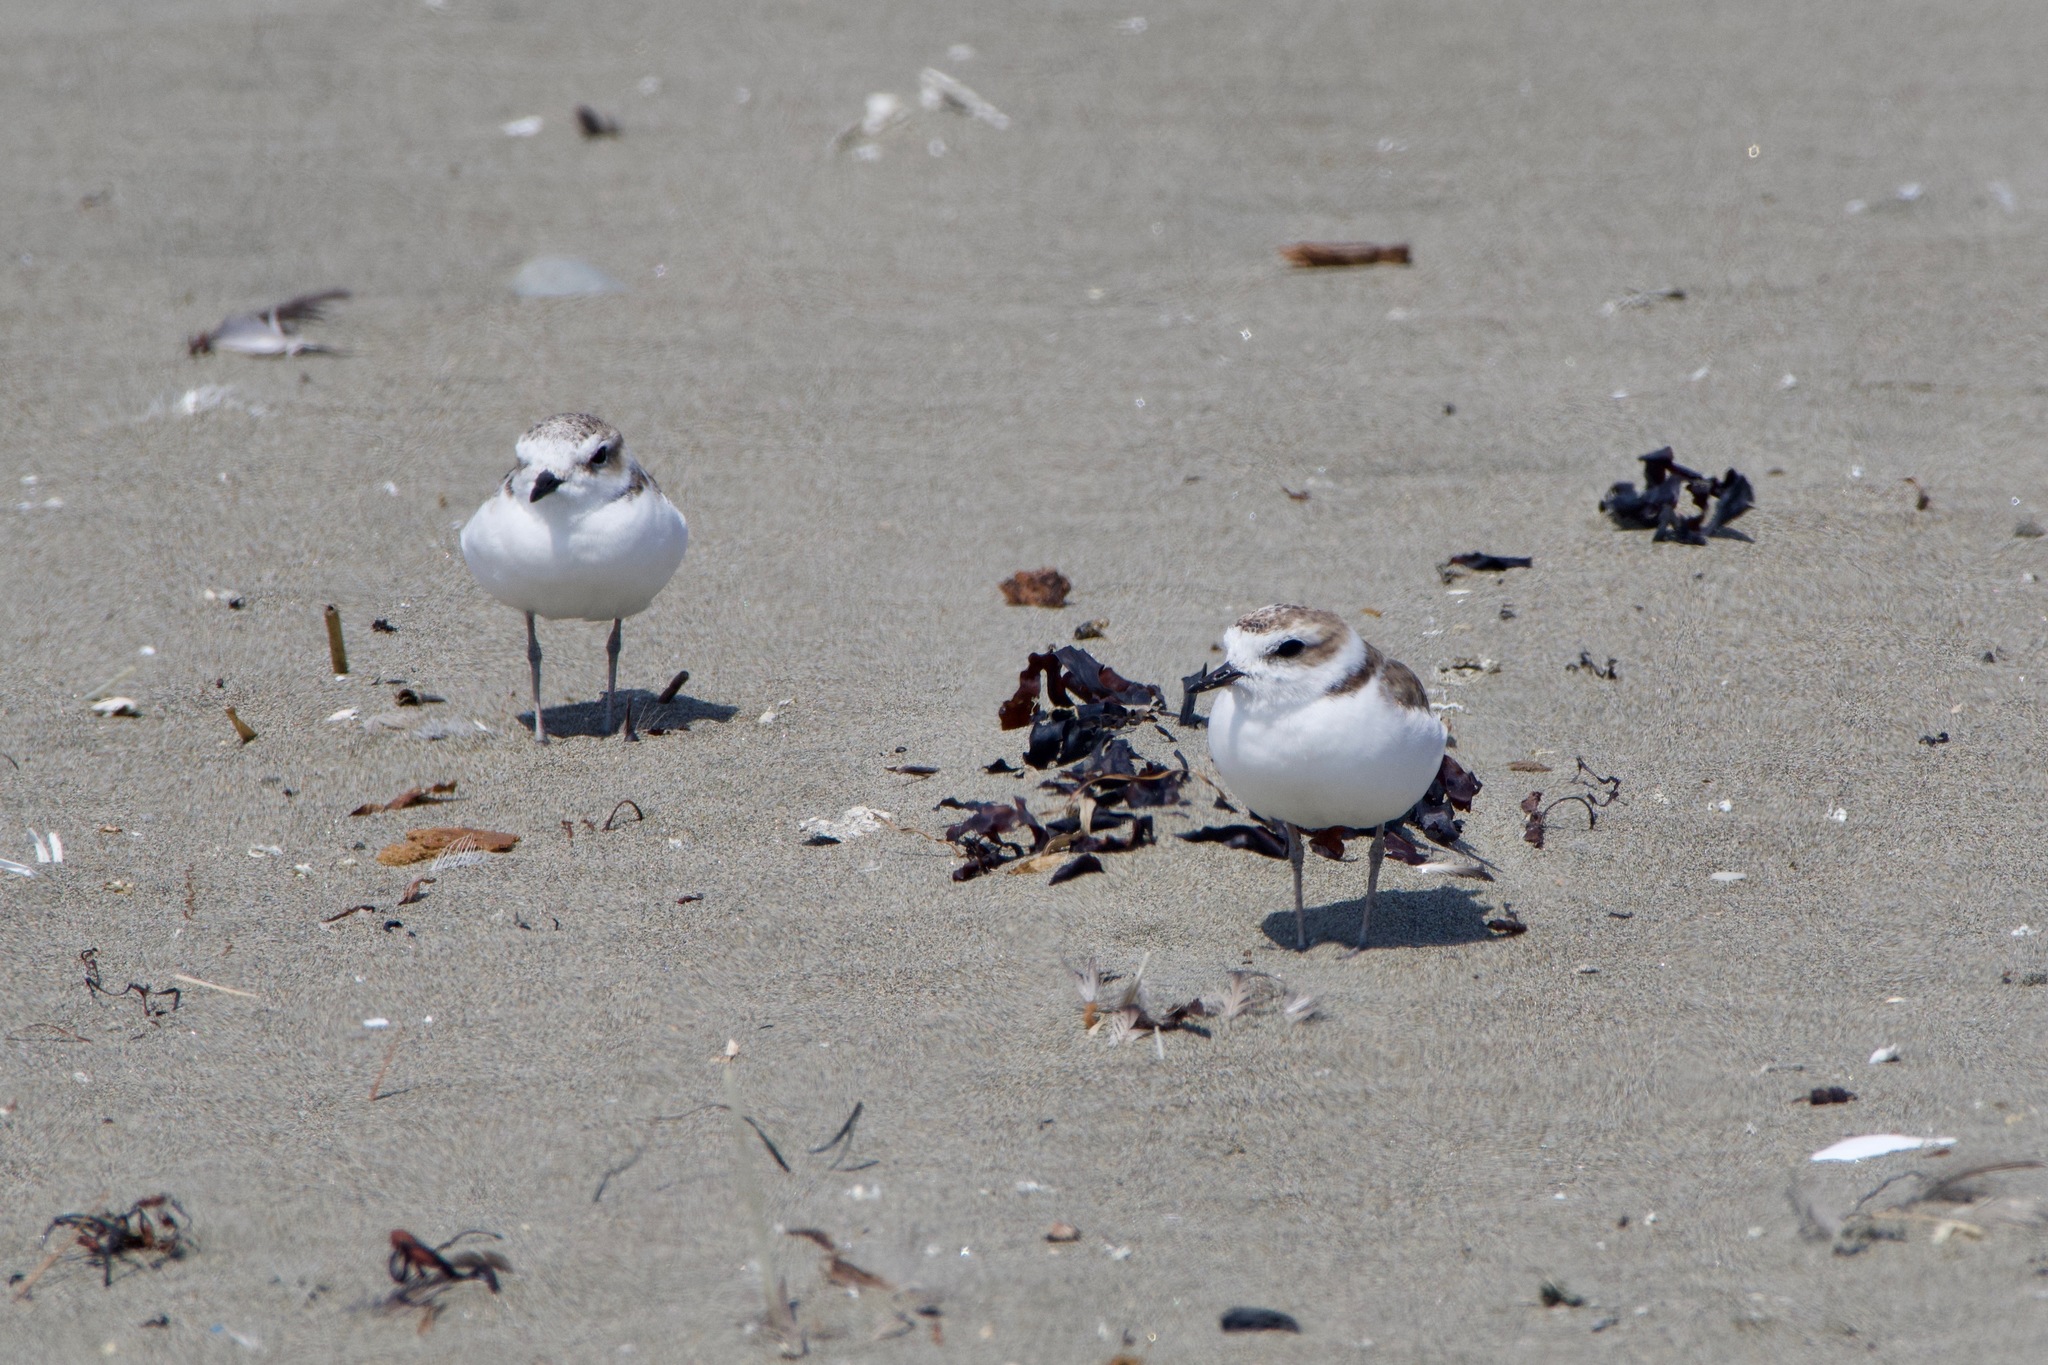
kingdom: Animalia
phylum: Chordata
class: Aves
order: Charadriiformes
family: Charadriidae
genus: Anarhynchus
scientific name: Anarhynchus
